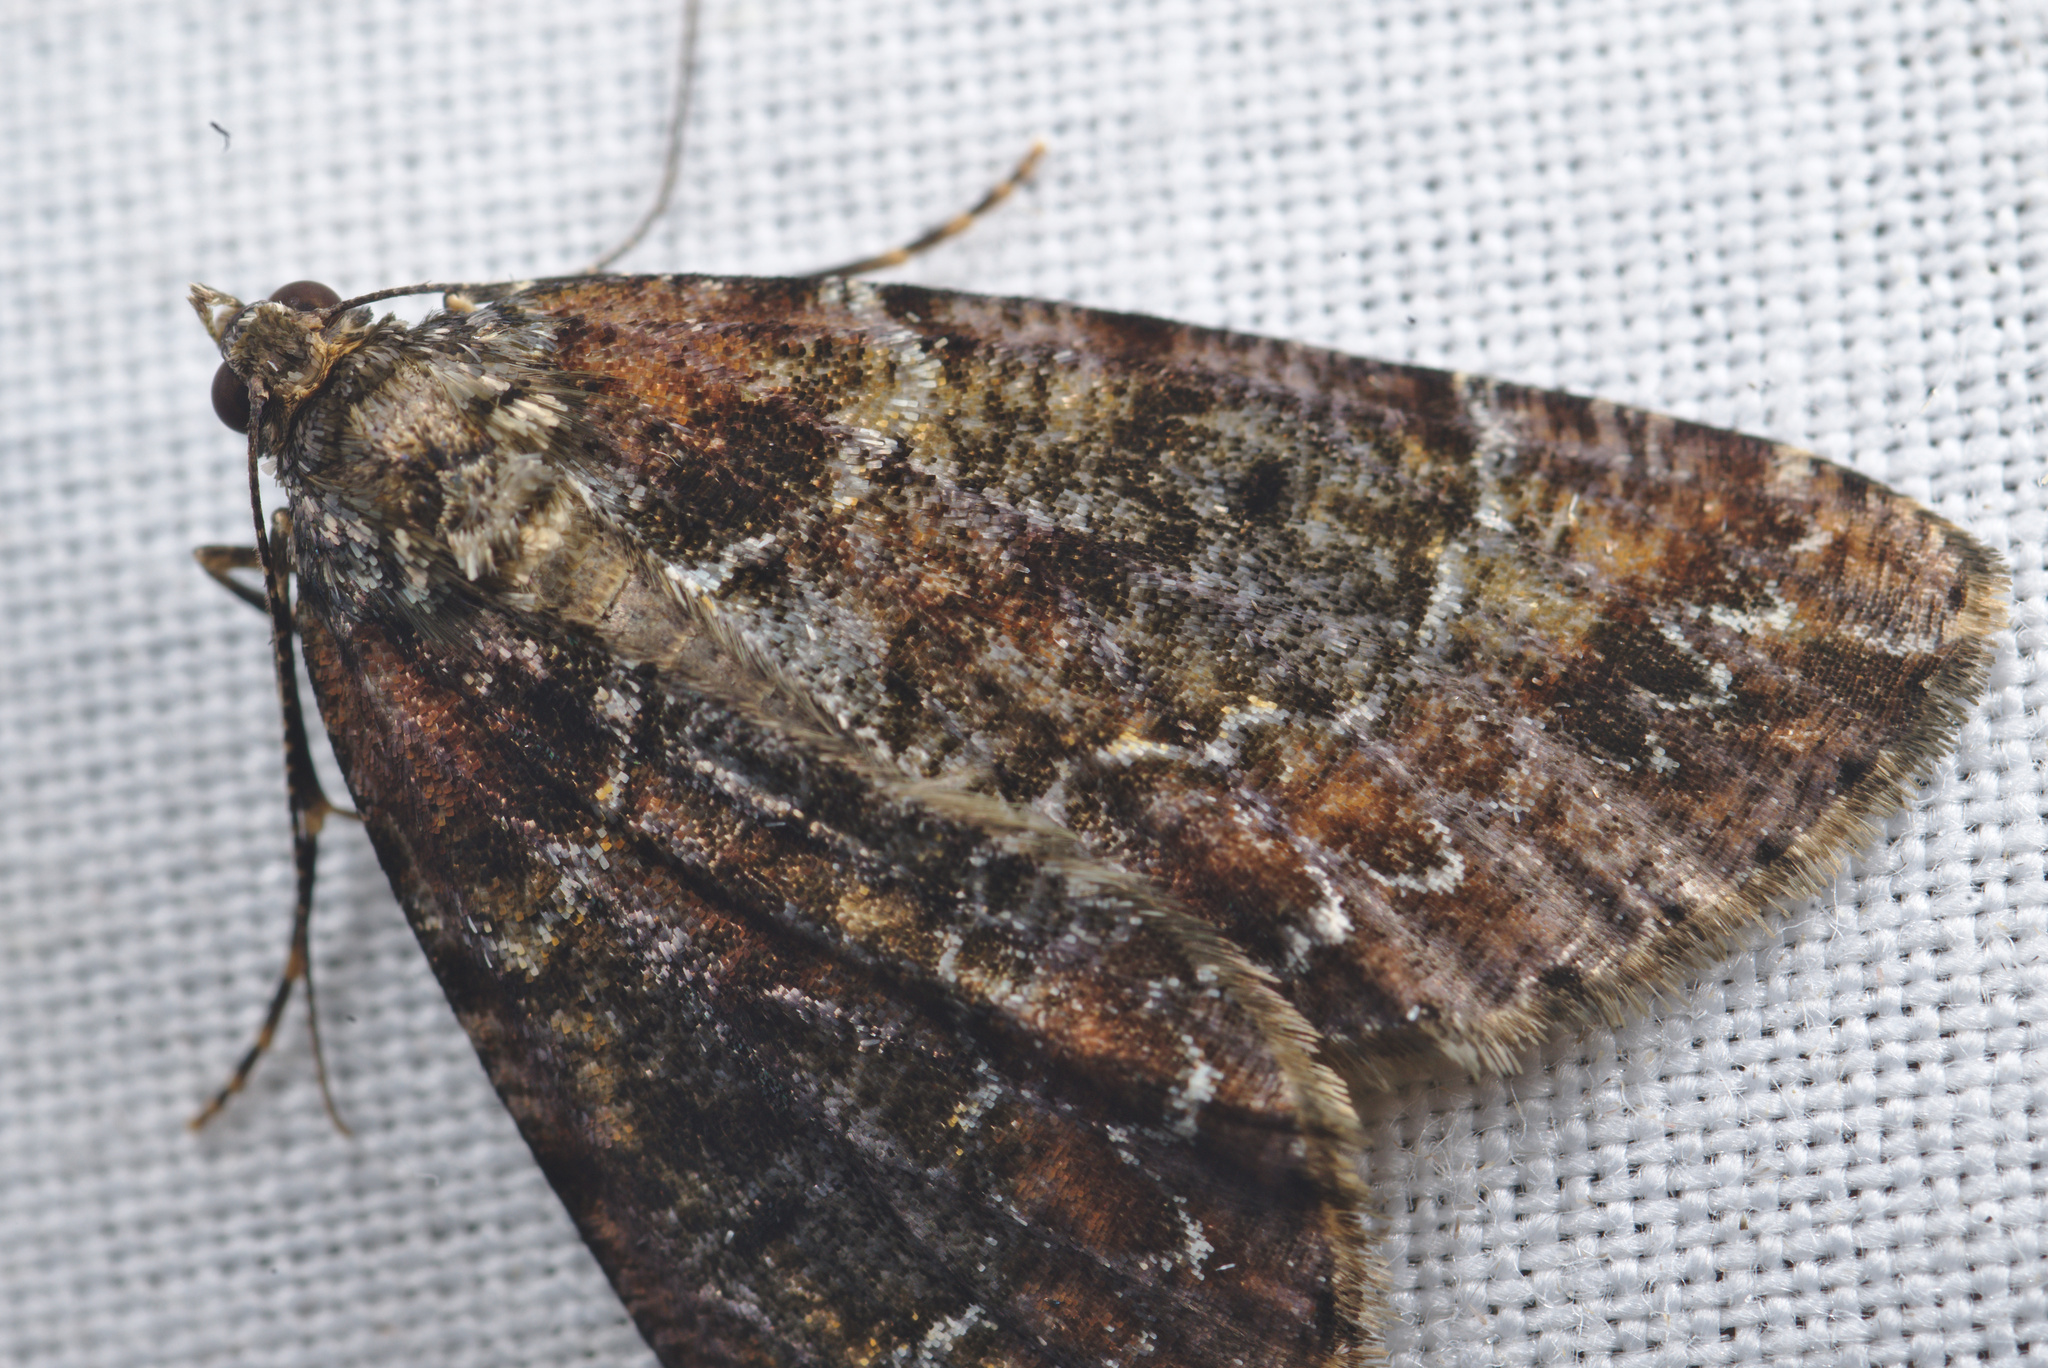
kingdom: Animalia
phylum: Arthropoda
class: Insecta
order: Lepidoptera
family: Geometridae
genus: Pseudocoremia
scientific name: Pseudocoremia productata
